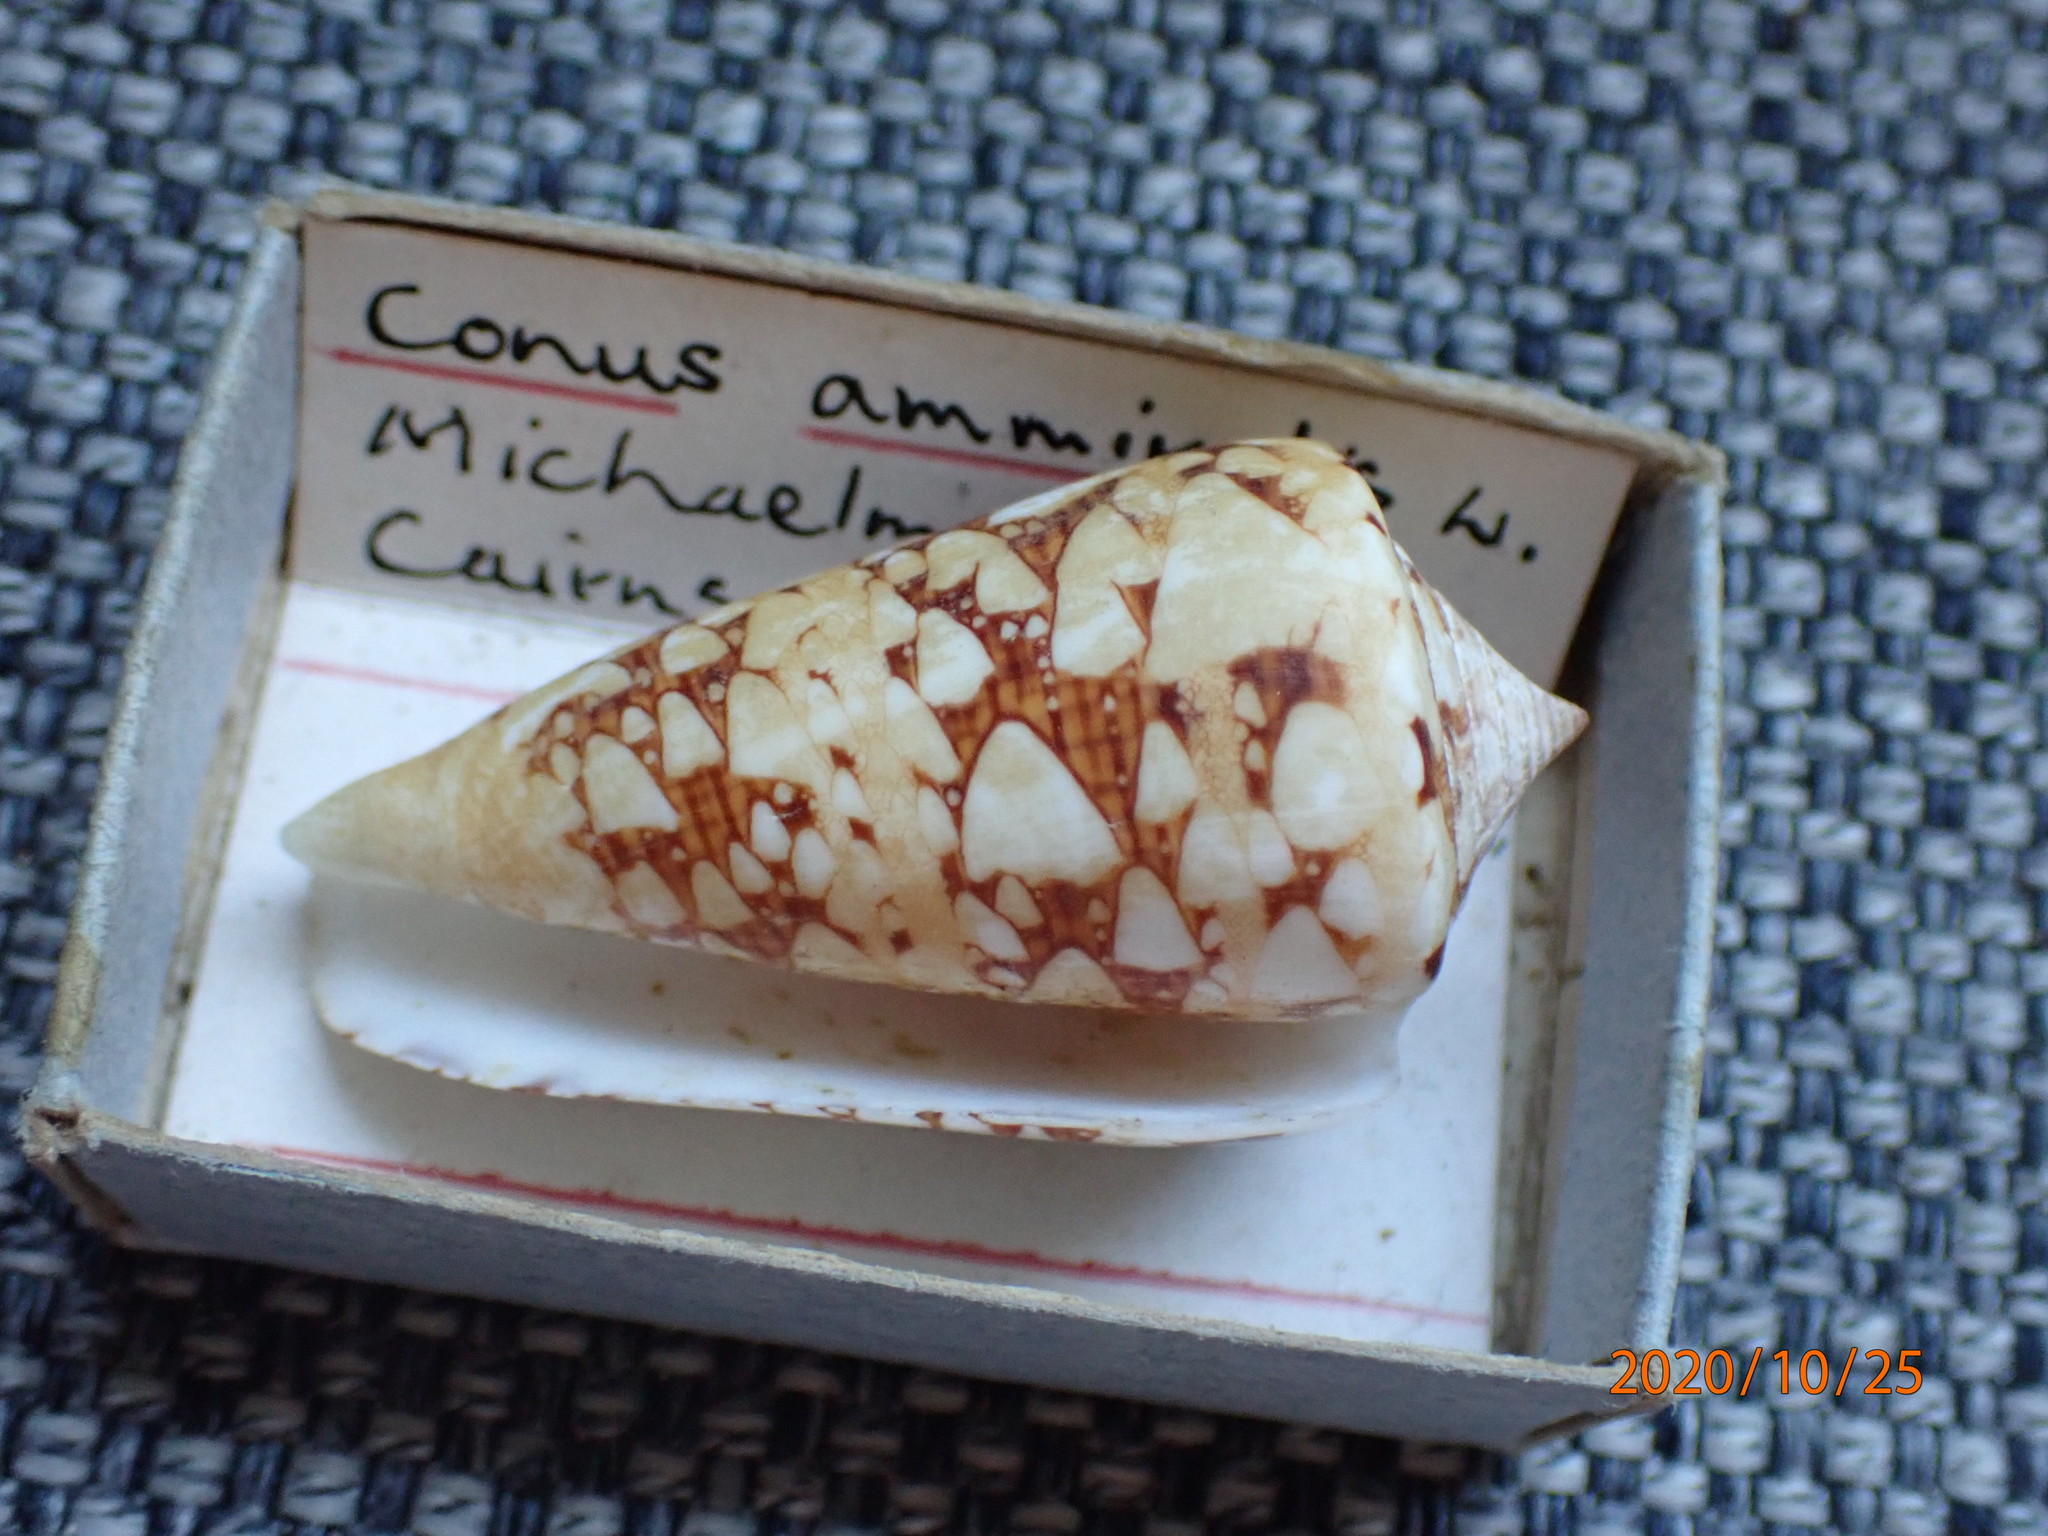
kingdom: Animalia
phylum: Mollusca
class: Gastropoda
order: Neogastropoda
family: Conidae
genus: Conus
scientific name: Conus ammiralis
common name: Ammiralis cone
